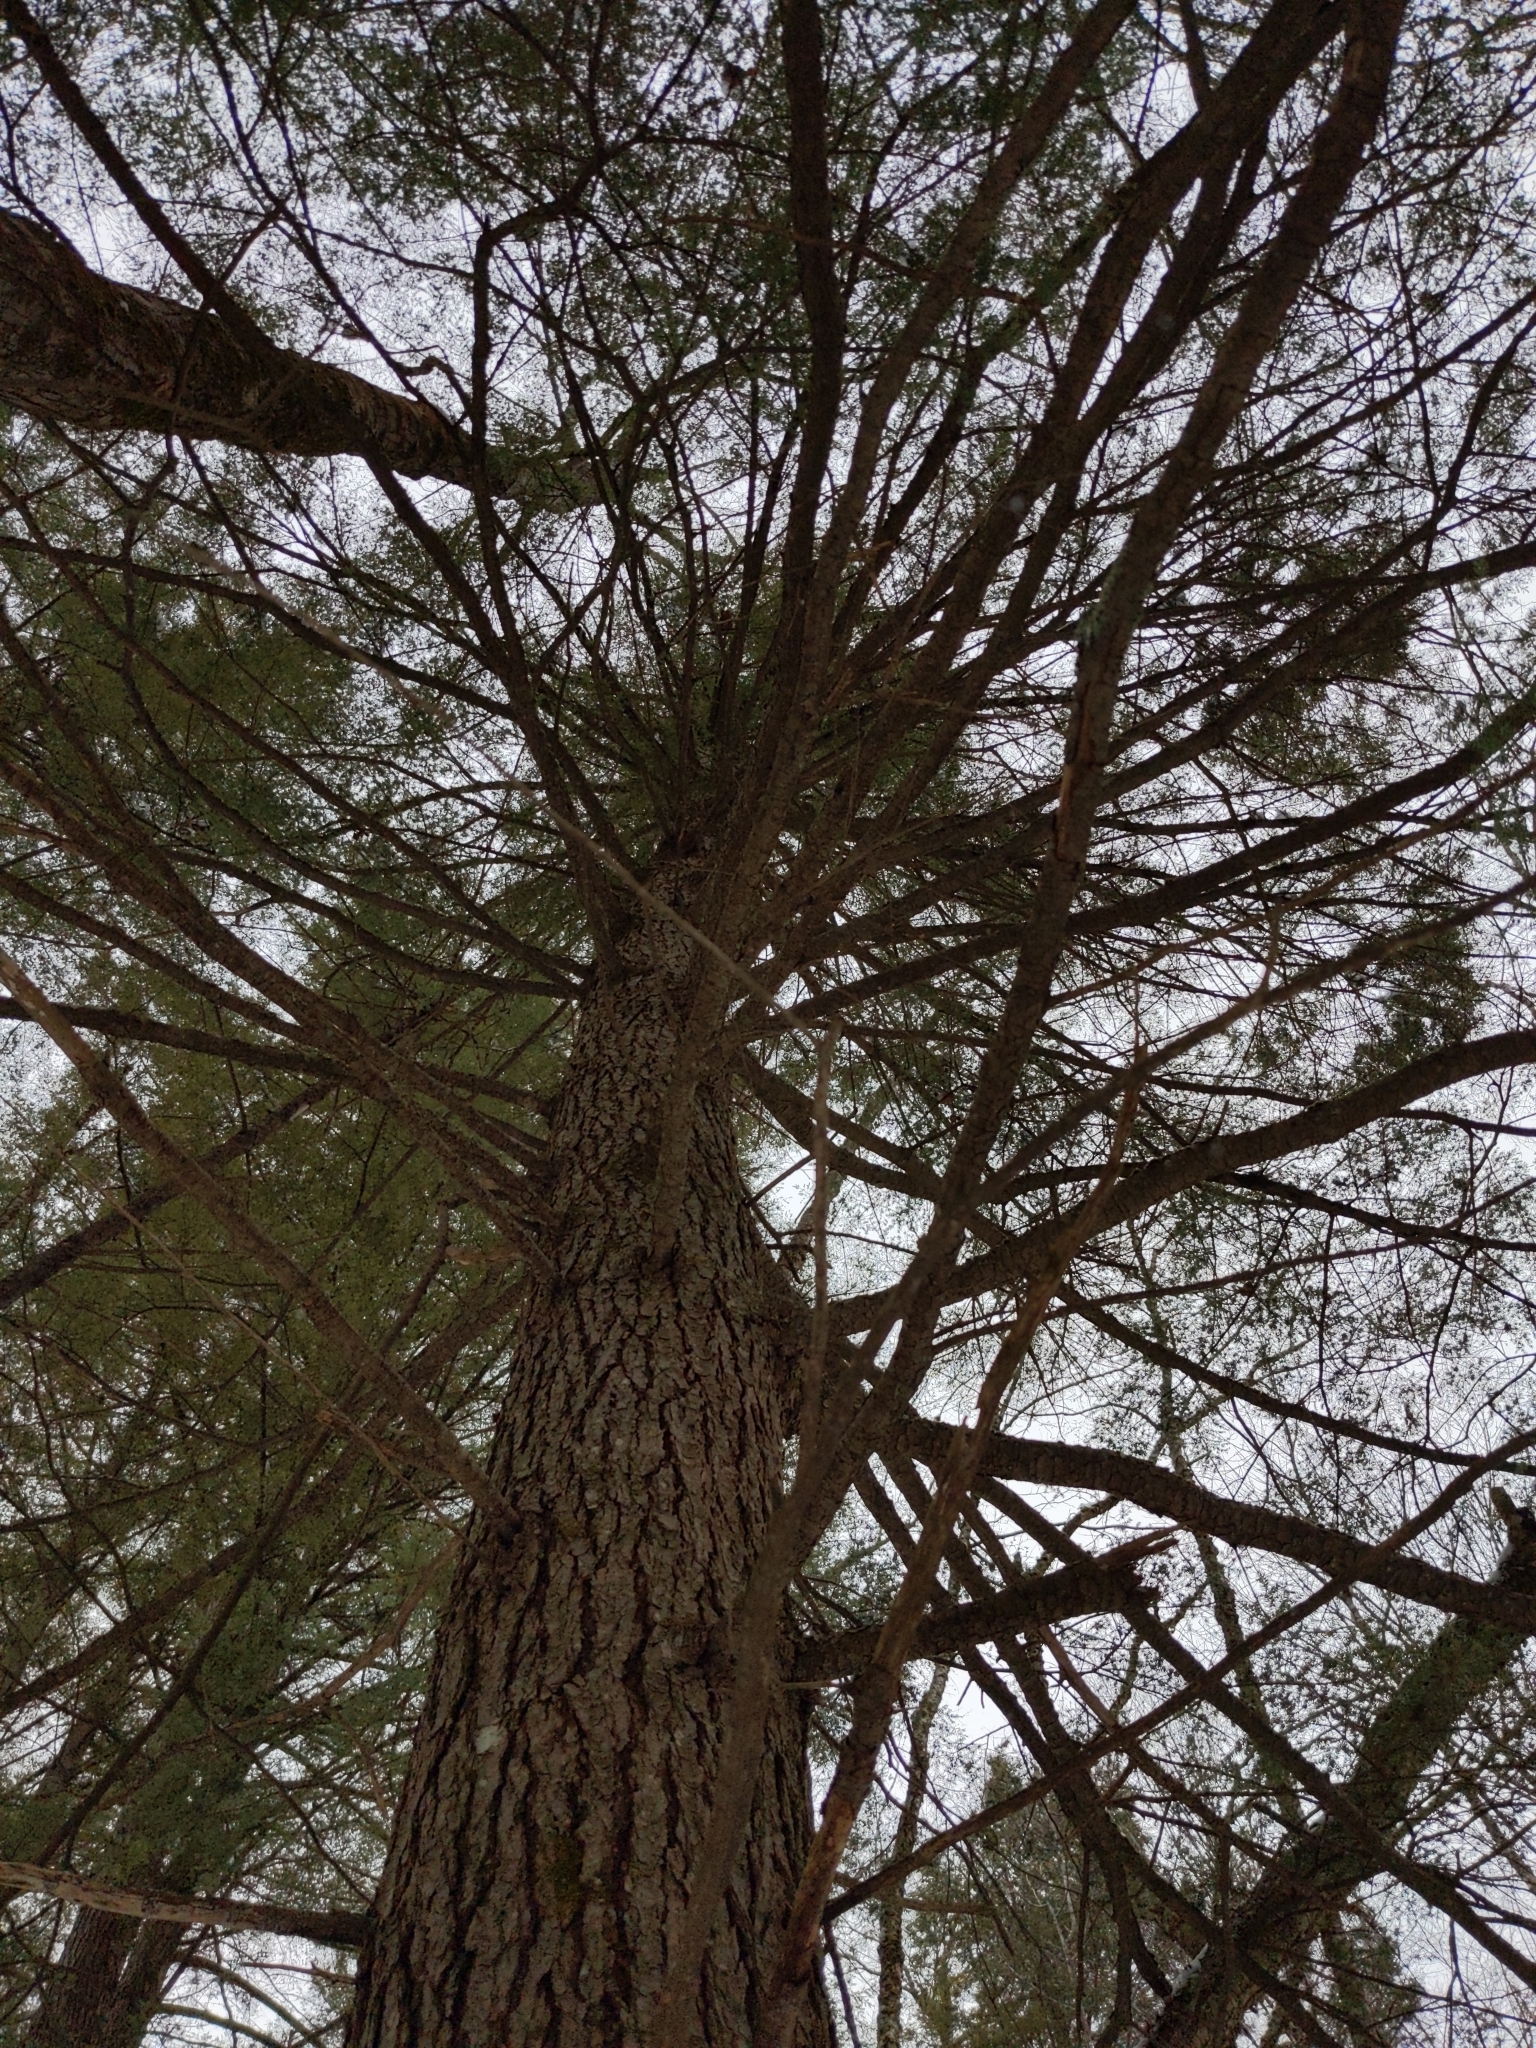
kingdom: Plantae
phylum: Tracheophyta
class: Pinopsida
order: Pinales
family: Pinaceae
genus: Tsuga
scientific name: Tsuga canadensis
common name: Eastern hemlock
